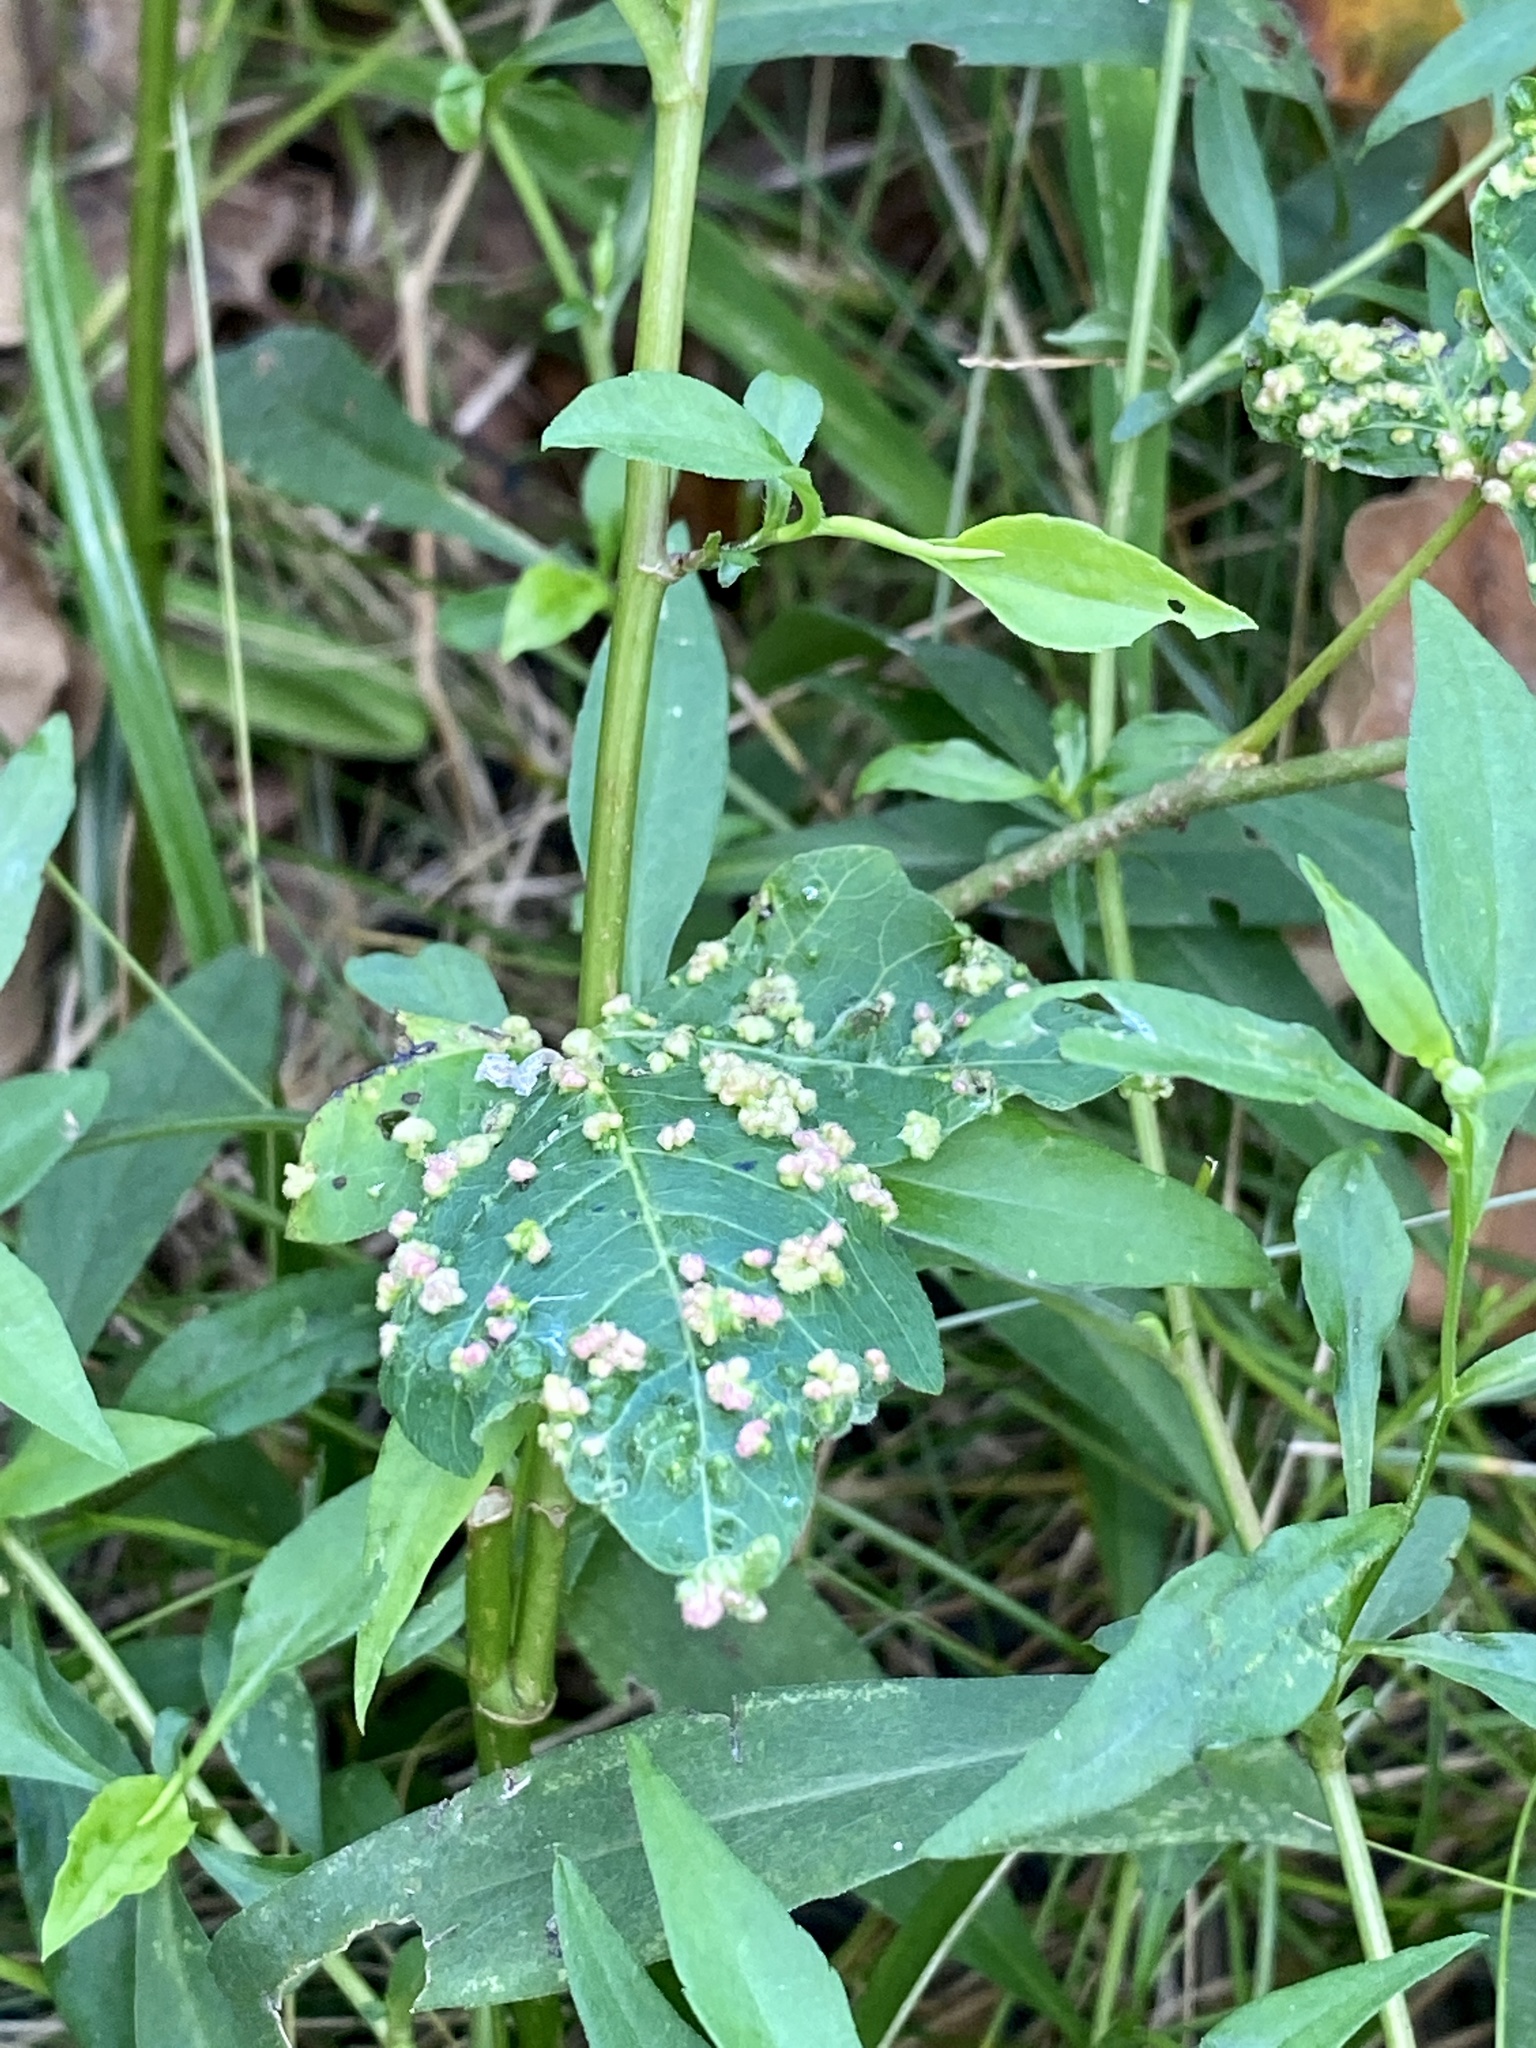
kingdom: Animalia
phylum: Arthropoda
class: Arachnida
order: Trombidiformes
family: Eriophyidae
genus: Aculops
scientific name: Aculops
